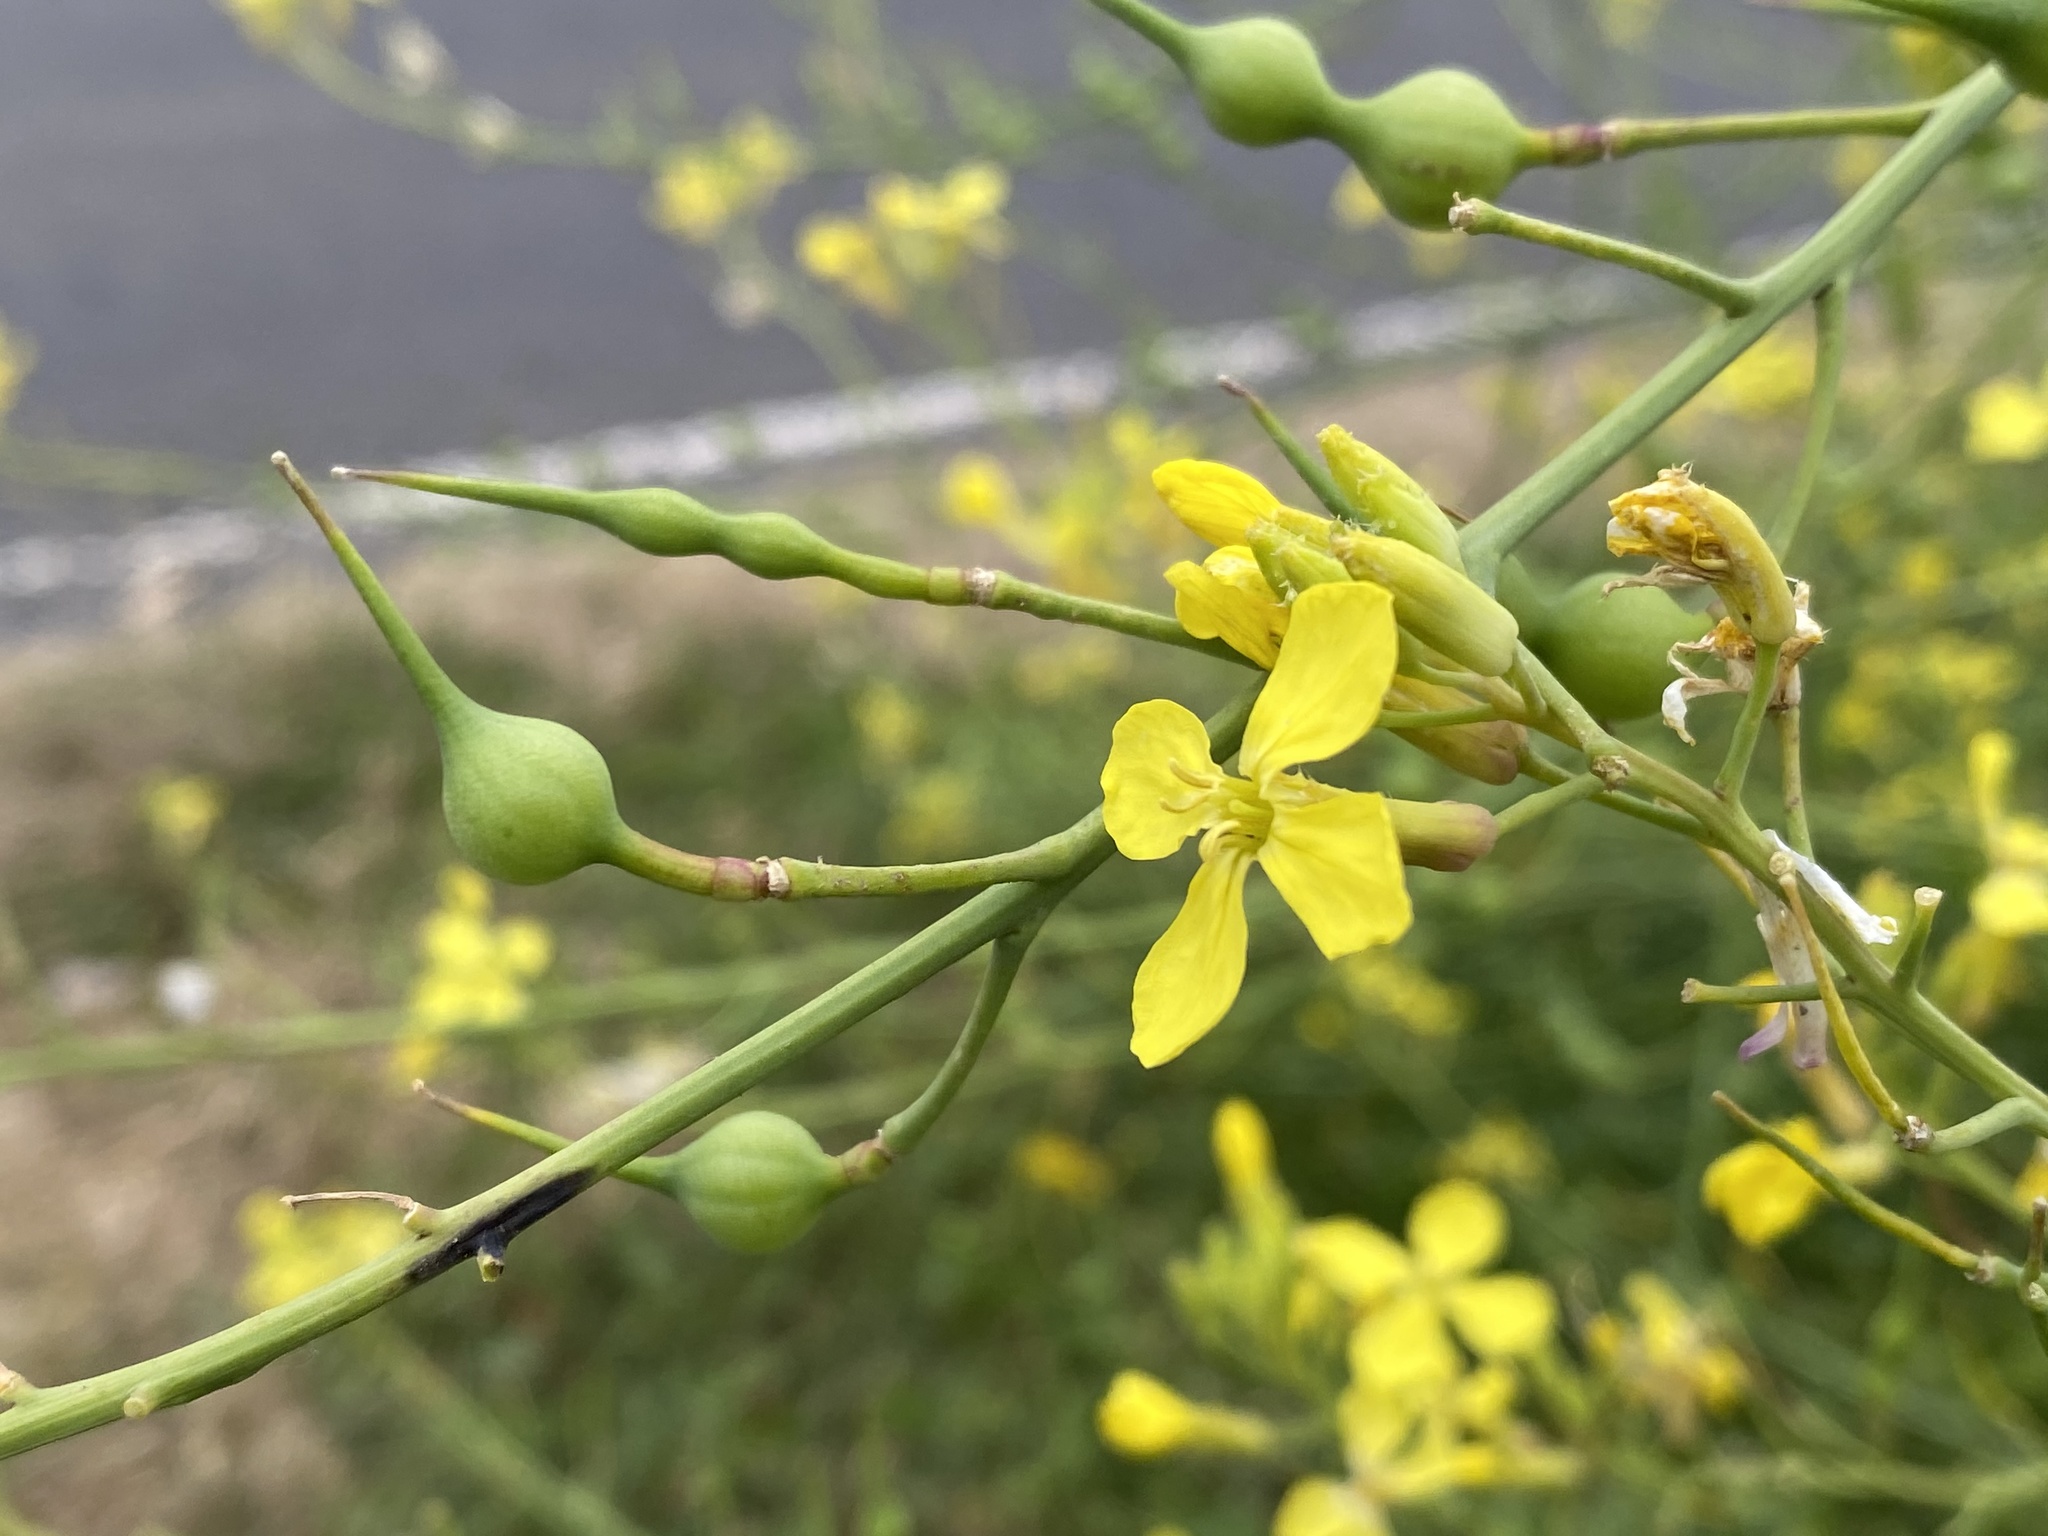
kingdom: Plantae
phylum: Tracheophyta
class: Magnoliopsida
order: Brassicales
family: Brassicaceae
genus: Raphanus
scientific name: Raphanus raphanistrum
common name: Wild radish
